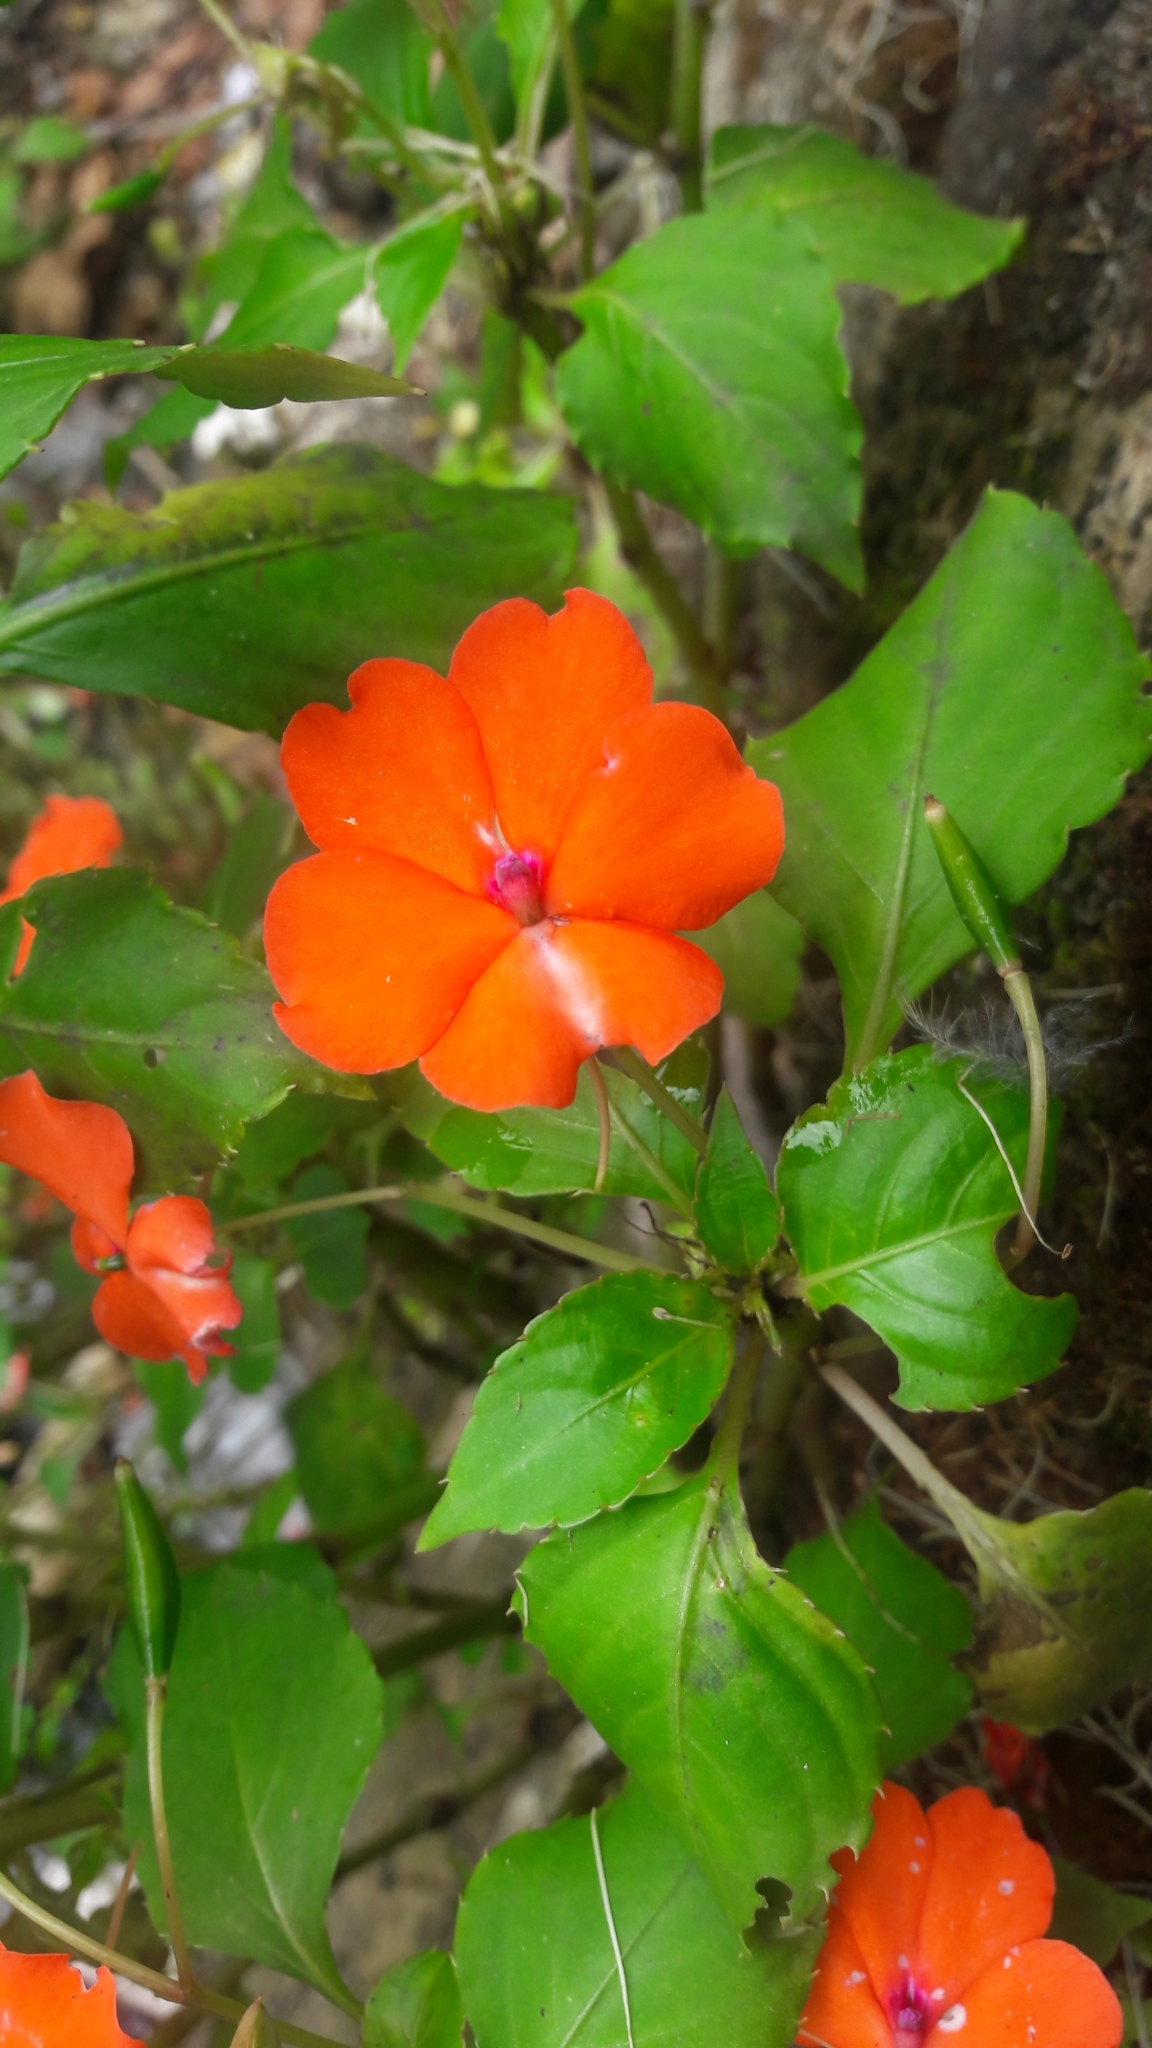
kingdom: Plantae
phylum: Tracheophyta
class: Magnoliopsida
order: Ericales
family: Balsaminaceae
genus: Impatiens
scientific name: Impatiens walleriana
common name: Buzzy lizzy
